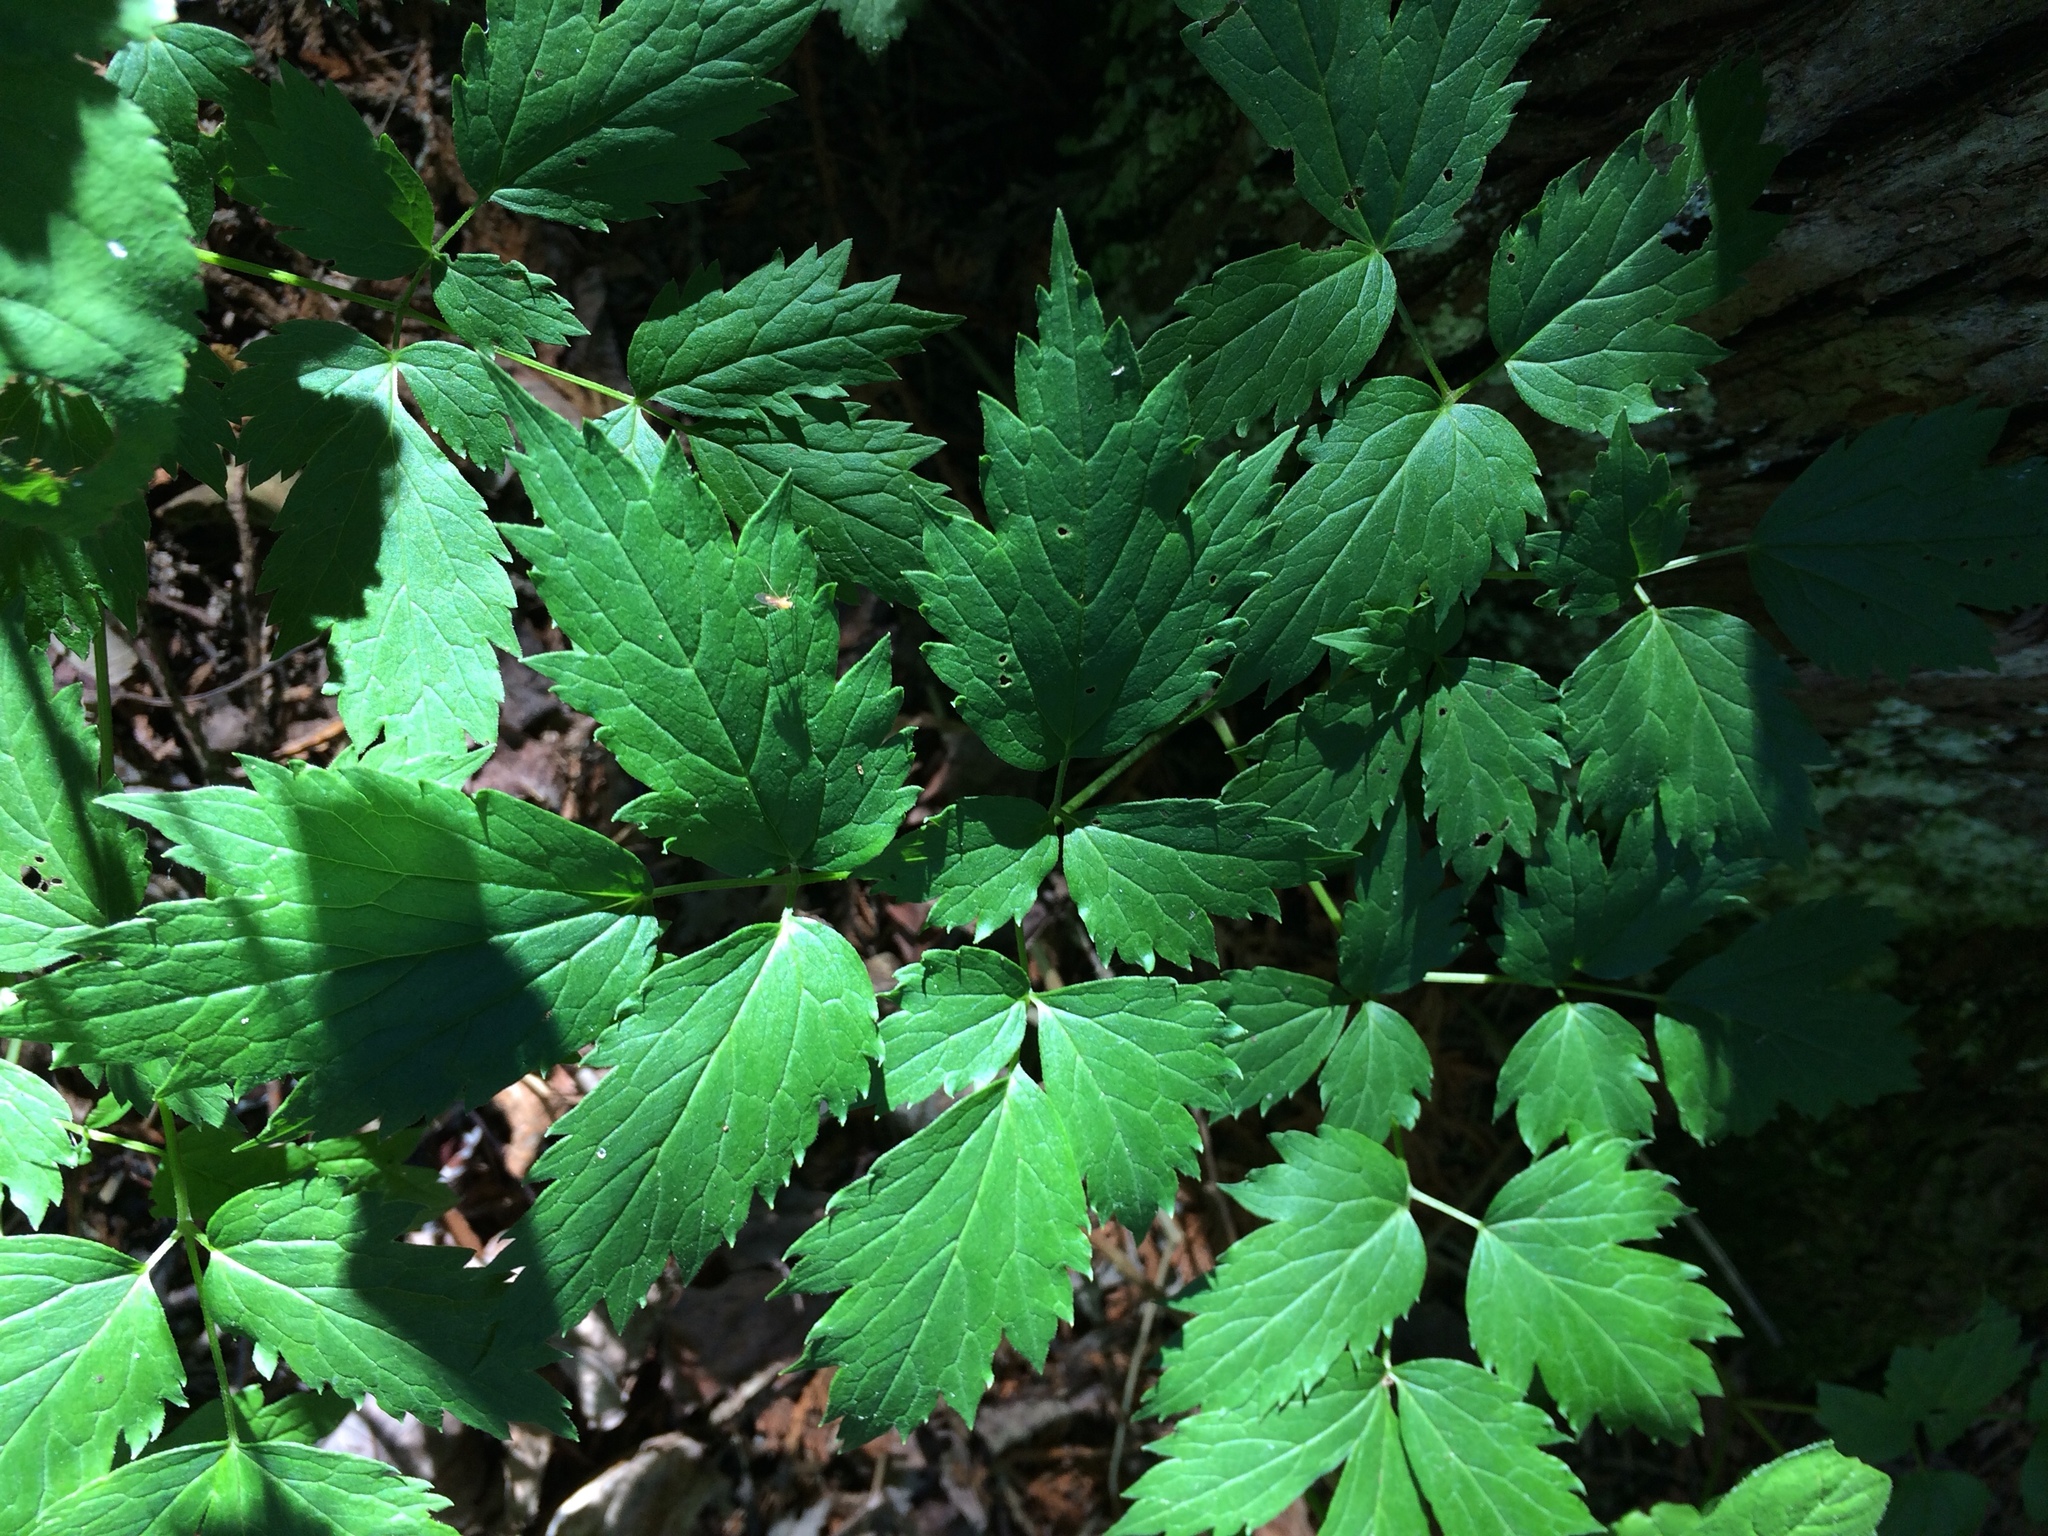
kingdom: Plantae
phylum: Tracheophyta
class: Magnoliopsida
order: Ranunculales
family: Ranunculaceae
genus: Actaea
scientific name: Actaea rubra
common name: Red baneberry
